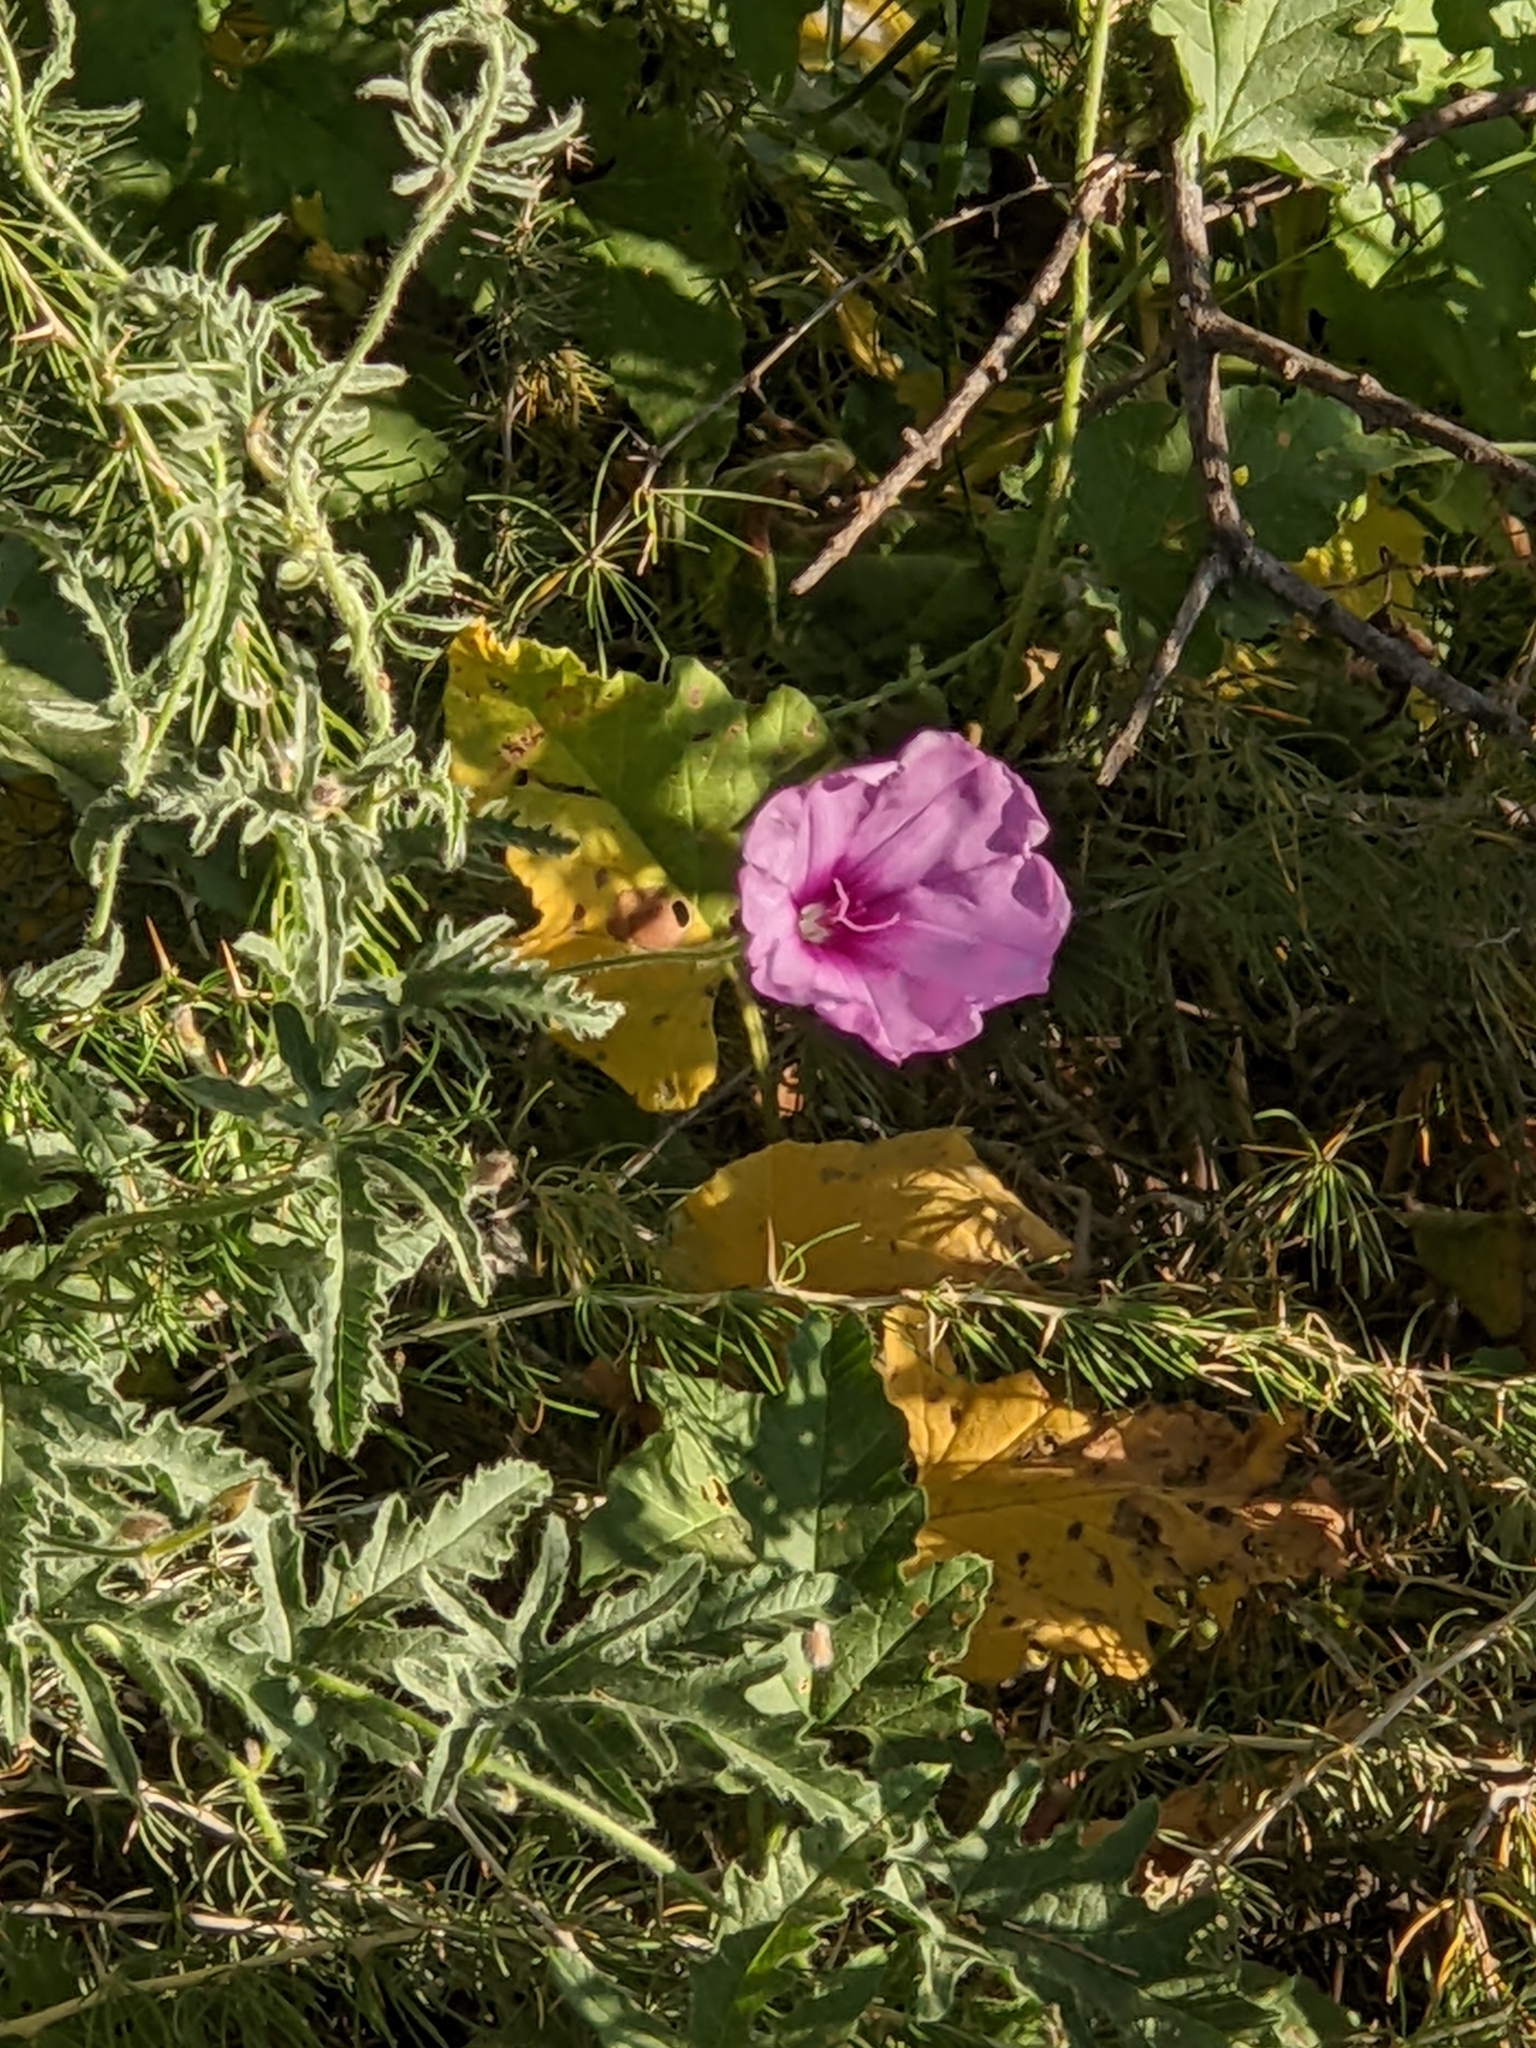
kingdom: Plantae
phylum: Tracheophyta
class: Magnoliopsida
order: Solanales
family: Convolvulaceae
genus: Convolvulus
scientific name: Convolvulus althaeoides
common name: Mallow bindweed
